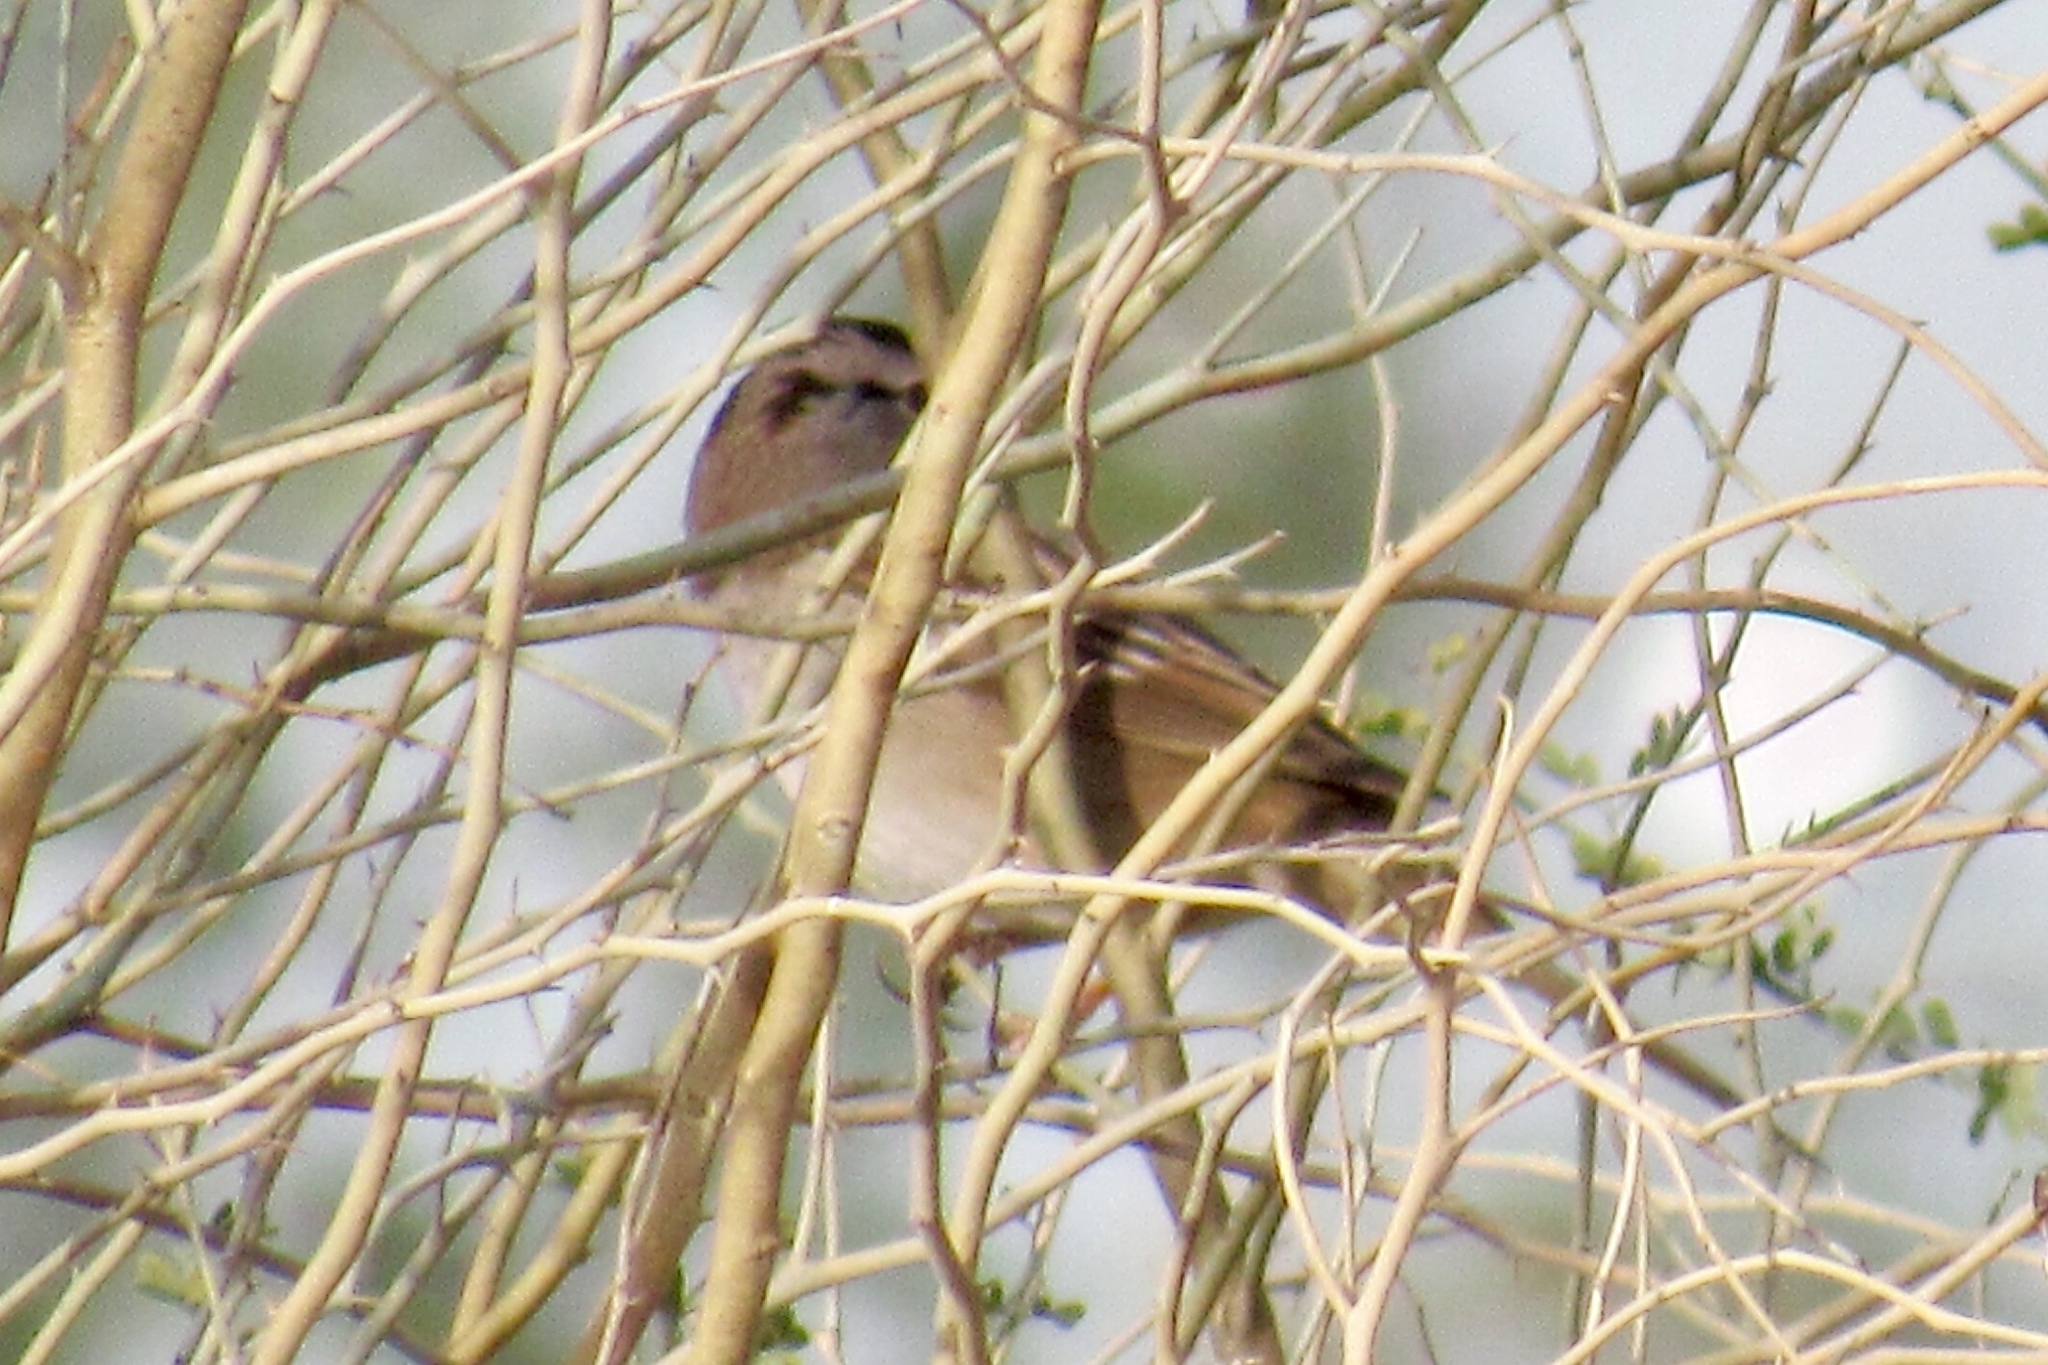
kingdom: Animalia
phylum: Chordata
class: Aves
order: Passeriformes
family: Passerellidae
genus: Zonotrichia
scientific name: Zonotrichia leucophrys
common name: White-crowned sparrow
